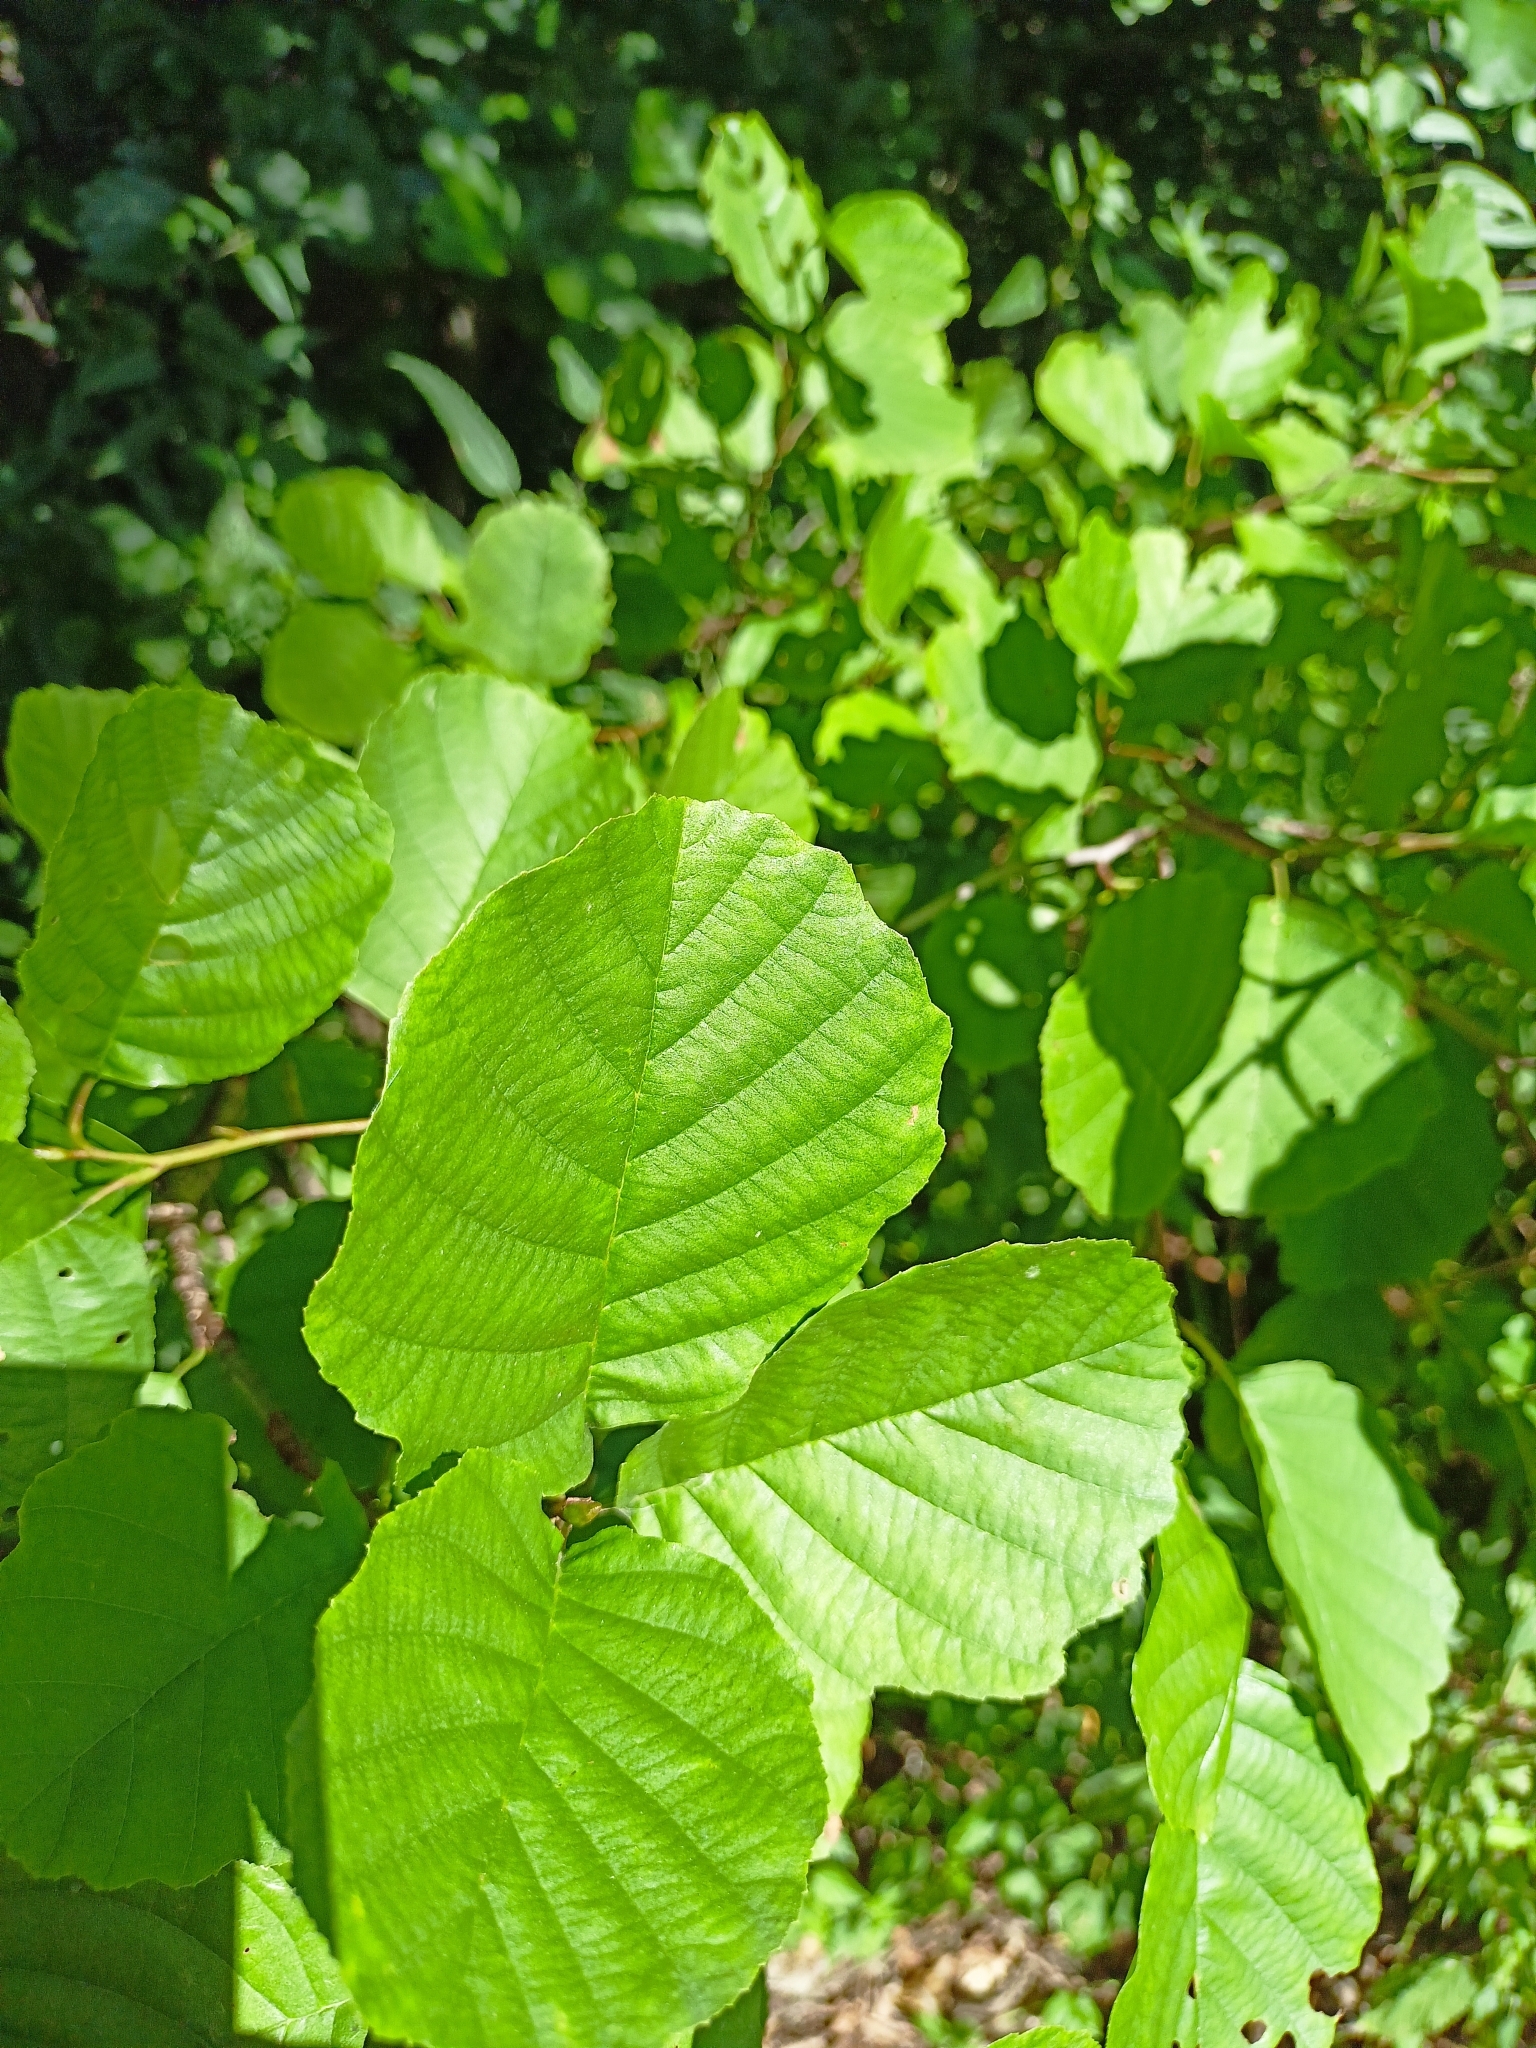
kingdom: Plantae
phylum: Tracheophyta
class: Magnoliopsida
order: Fagales
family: Betulaceae
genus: Alnus
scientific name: Alnus glutinosa
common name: Black alder
